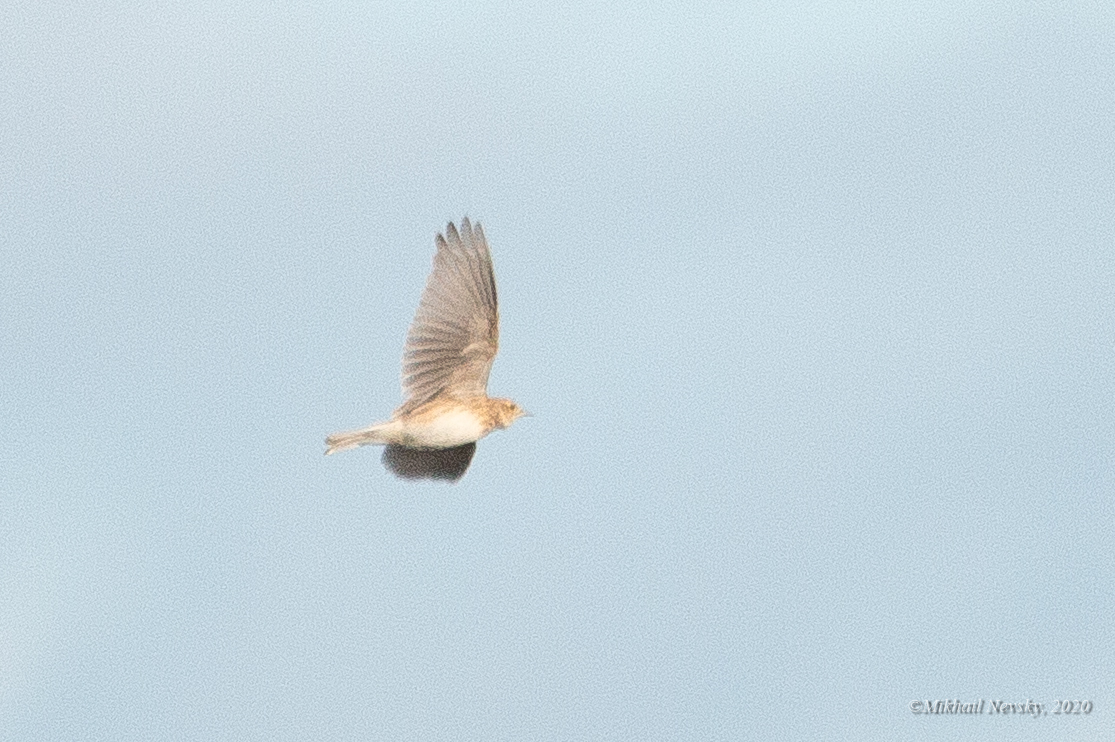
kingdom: Animalia
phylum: Chordata
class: Aves
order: Passeriformes
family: Alaudidae
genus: Alauda
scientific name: Alauda arvensis
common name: Eurasian skylark
